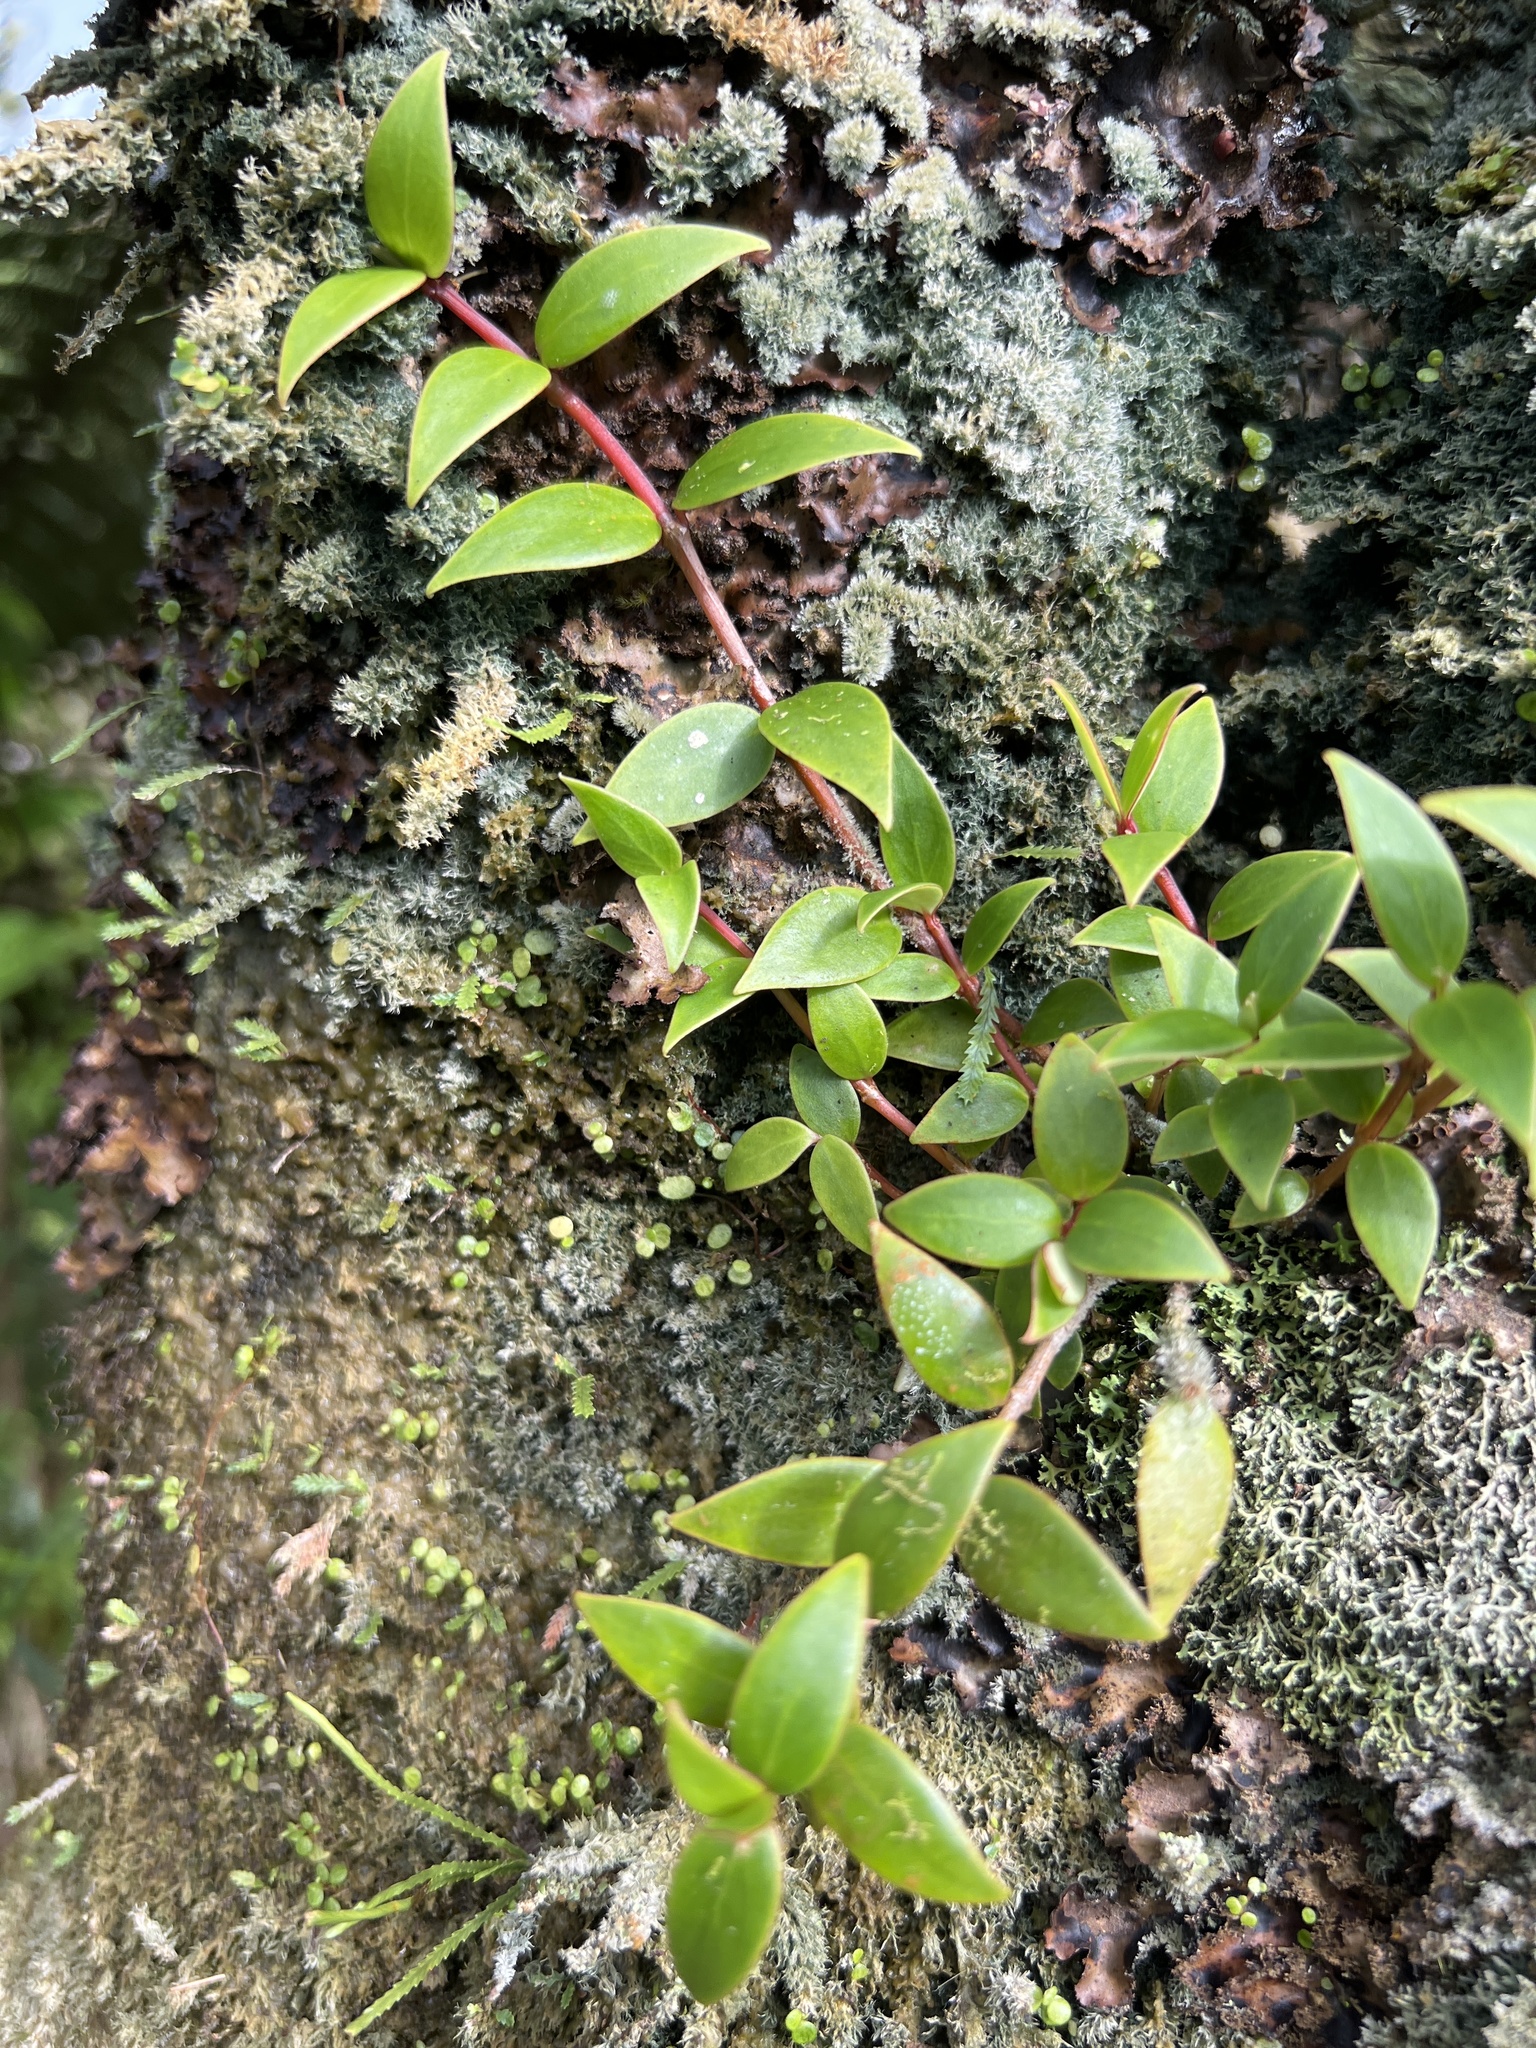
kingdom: Plantae
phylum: Tracheophyta
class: Magnoliopsida
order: Gentianales
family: Rubiaceae
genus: Notopleura
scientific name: Notopleura parasitica
